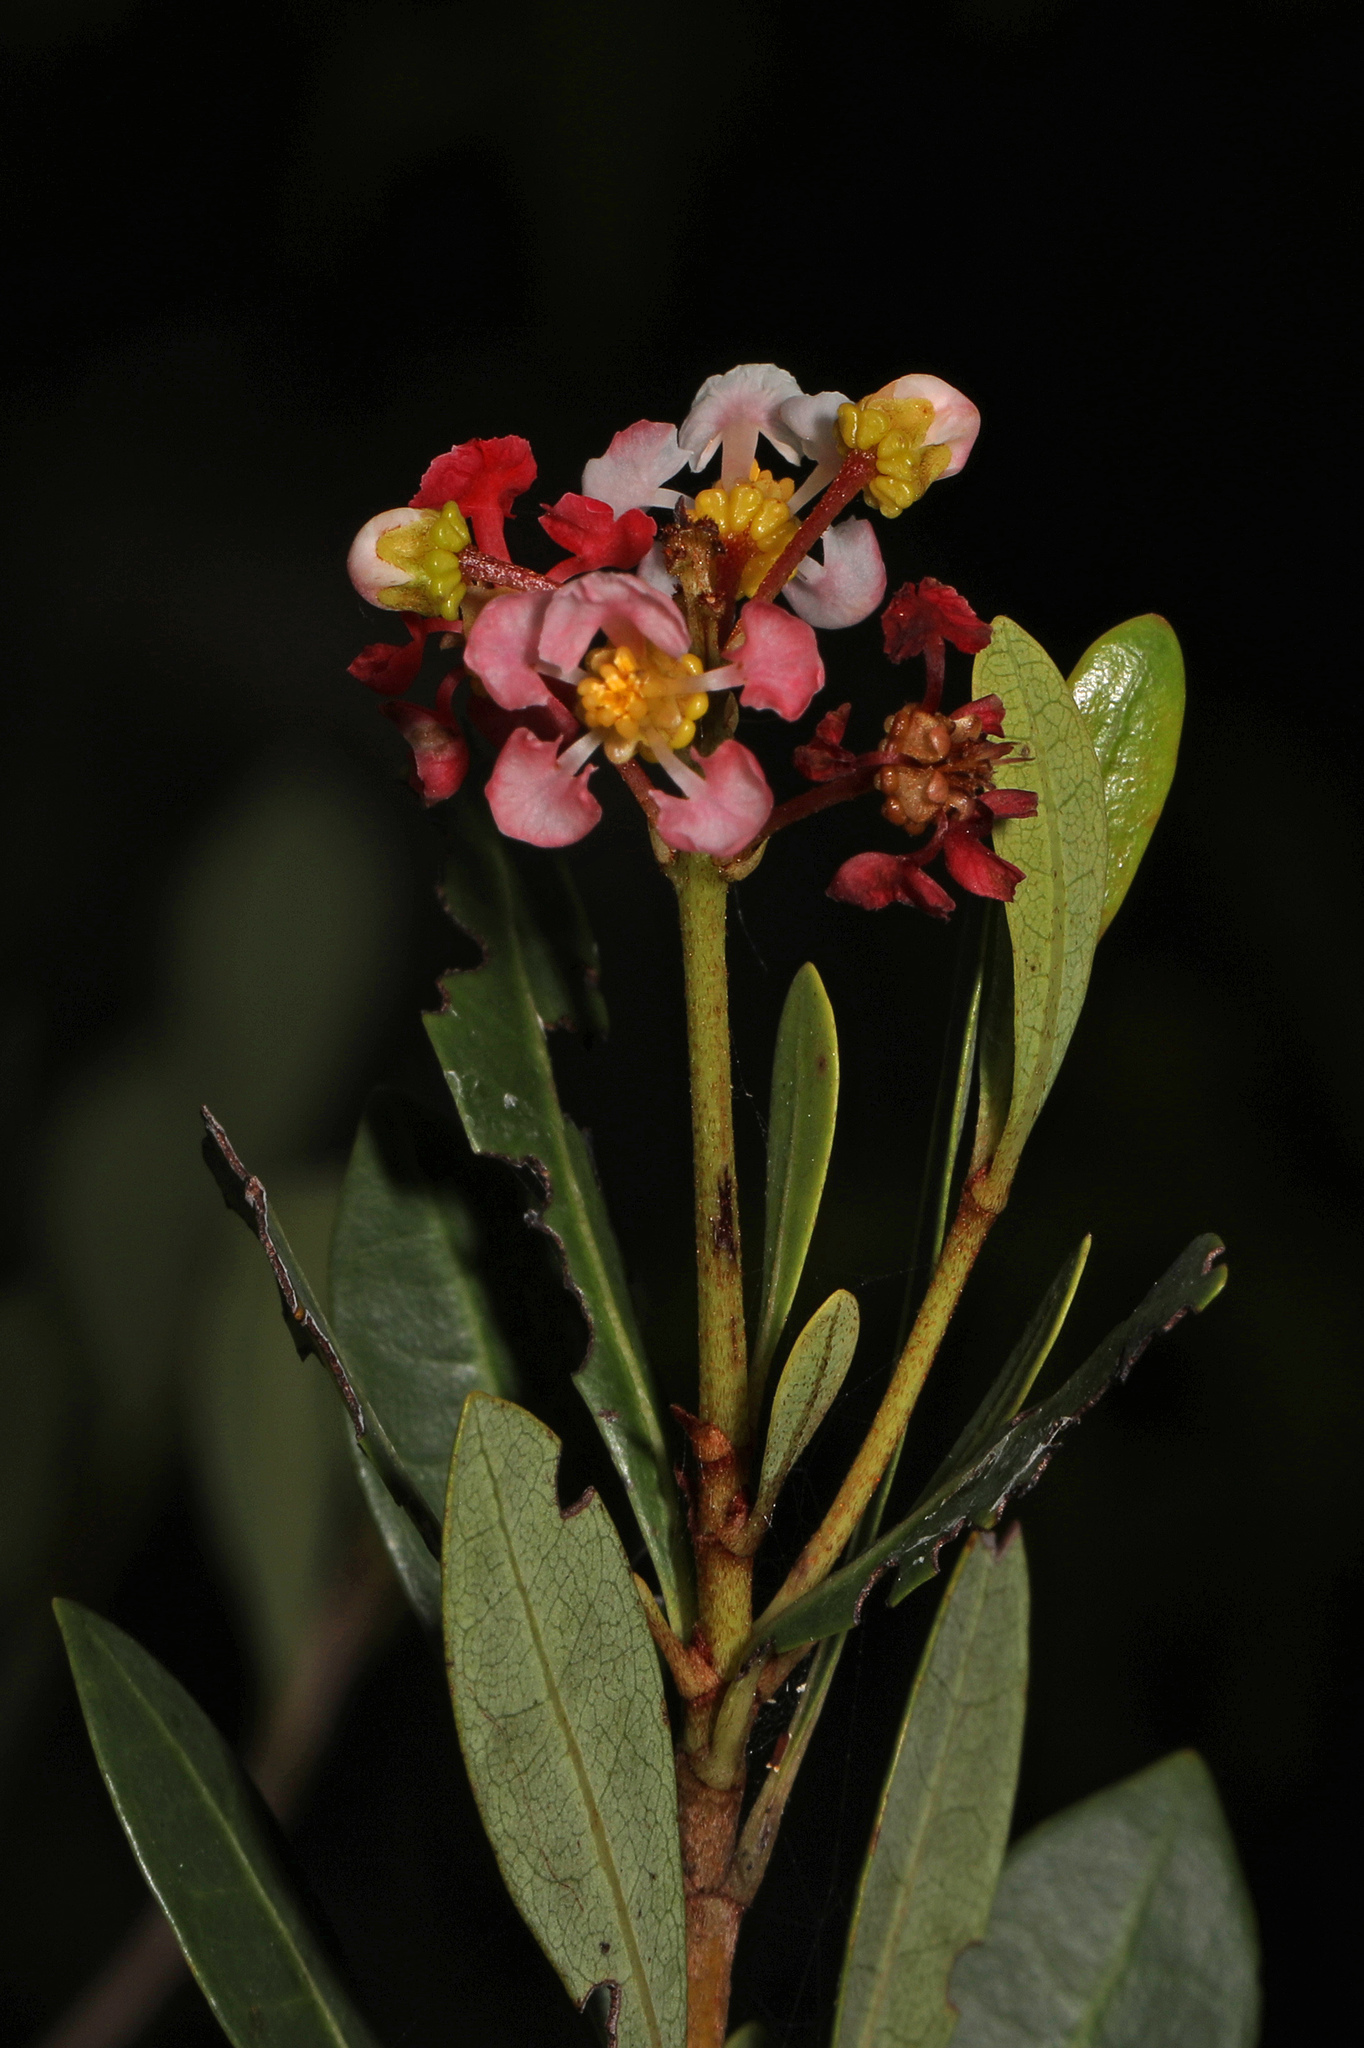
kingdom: Plantae
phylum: Tracheophyta
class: Magnoliopsida
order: Malpighiales
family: Malpighiaceae
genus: Byrsonima
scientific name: Byrsonima lucida
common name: Clam-cherry
